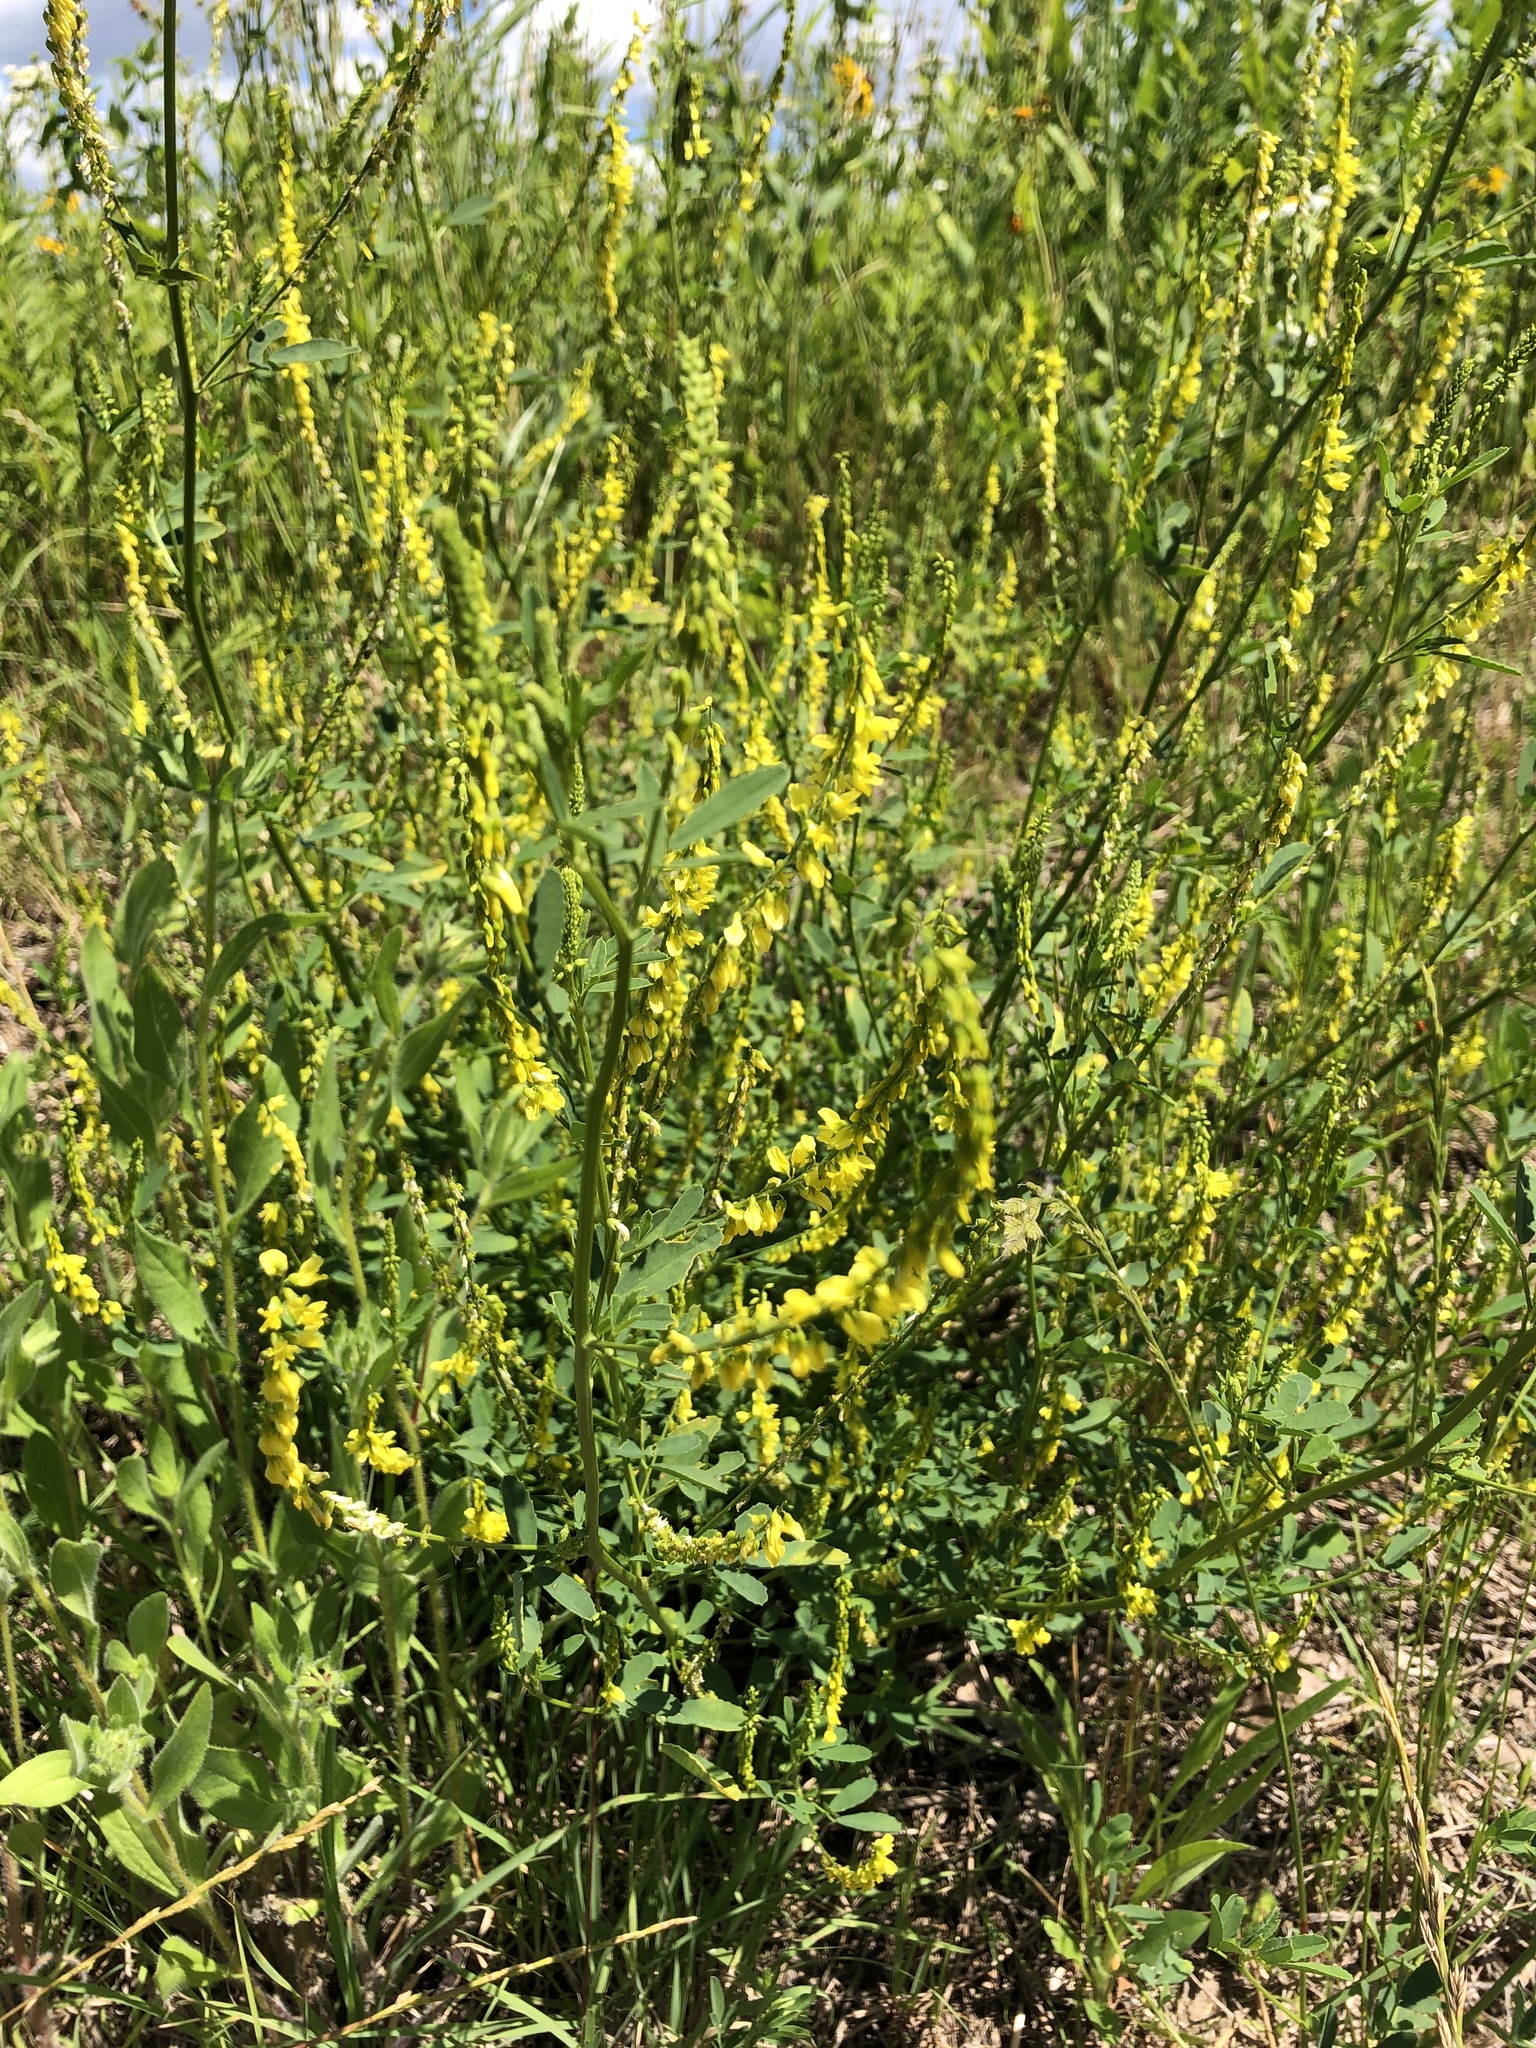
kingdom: Plantae
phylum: Tracheophyta
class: Magnoliopsida
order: Fabales
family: Fabaceae
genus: Melilotus
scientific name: Melilotus officinalis
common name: Sweetclover
